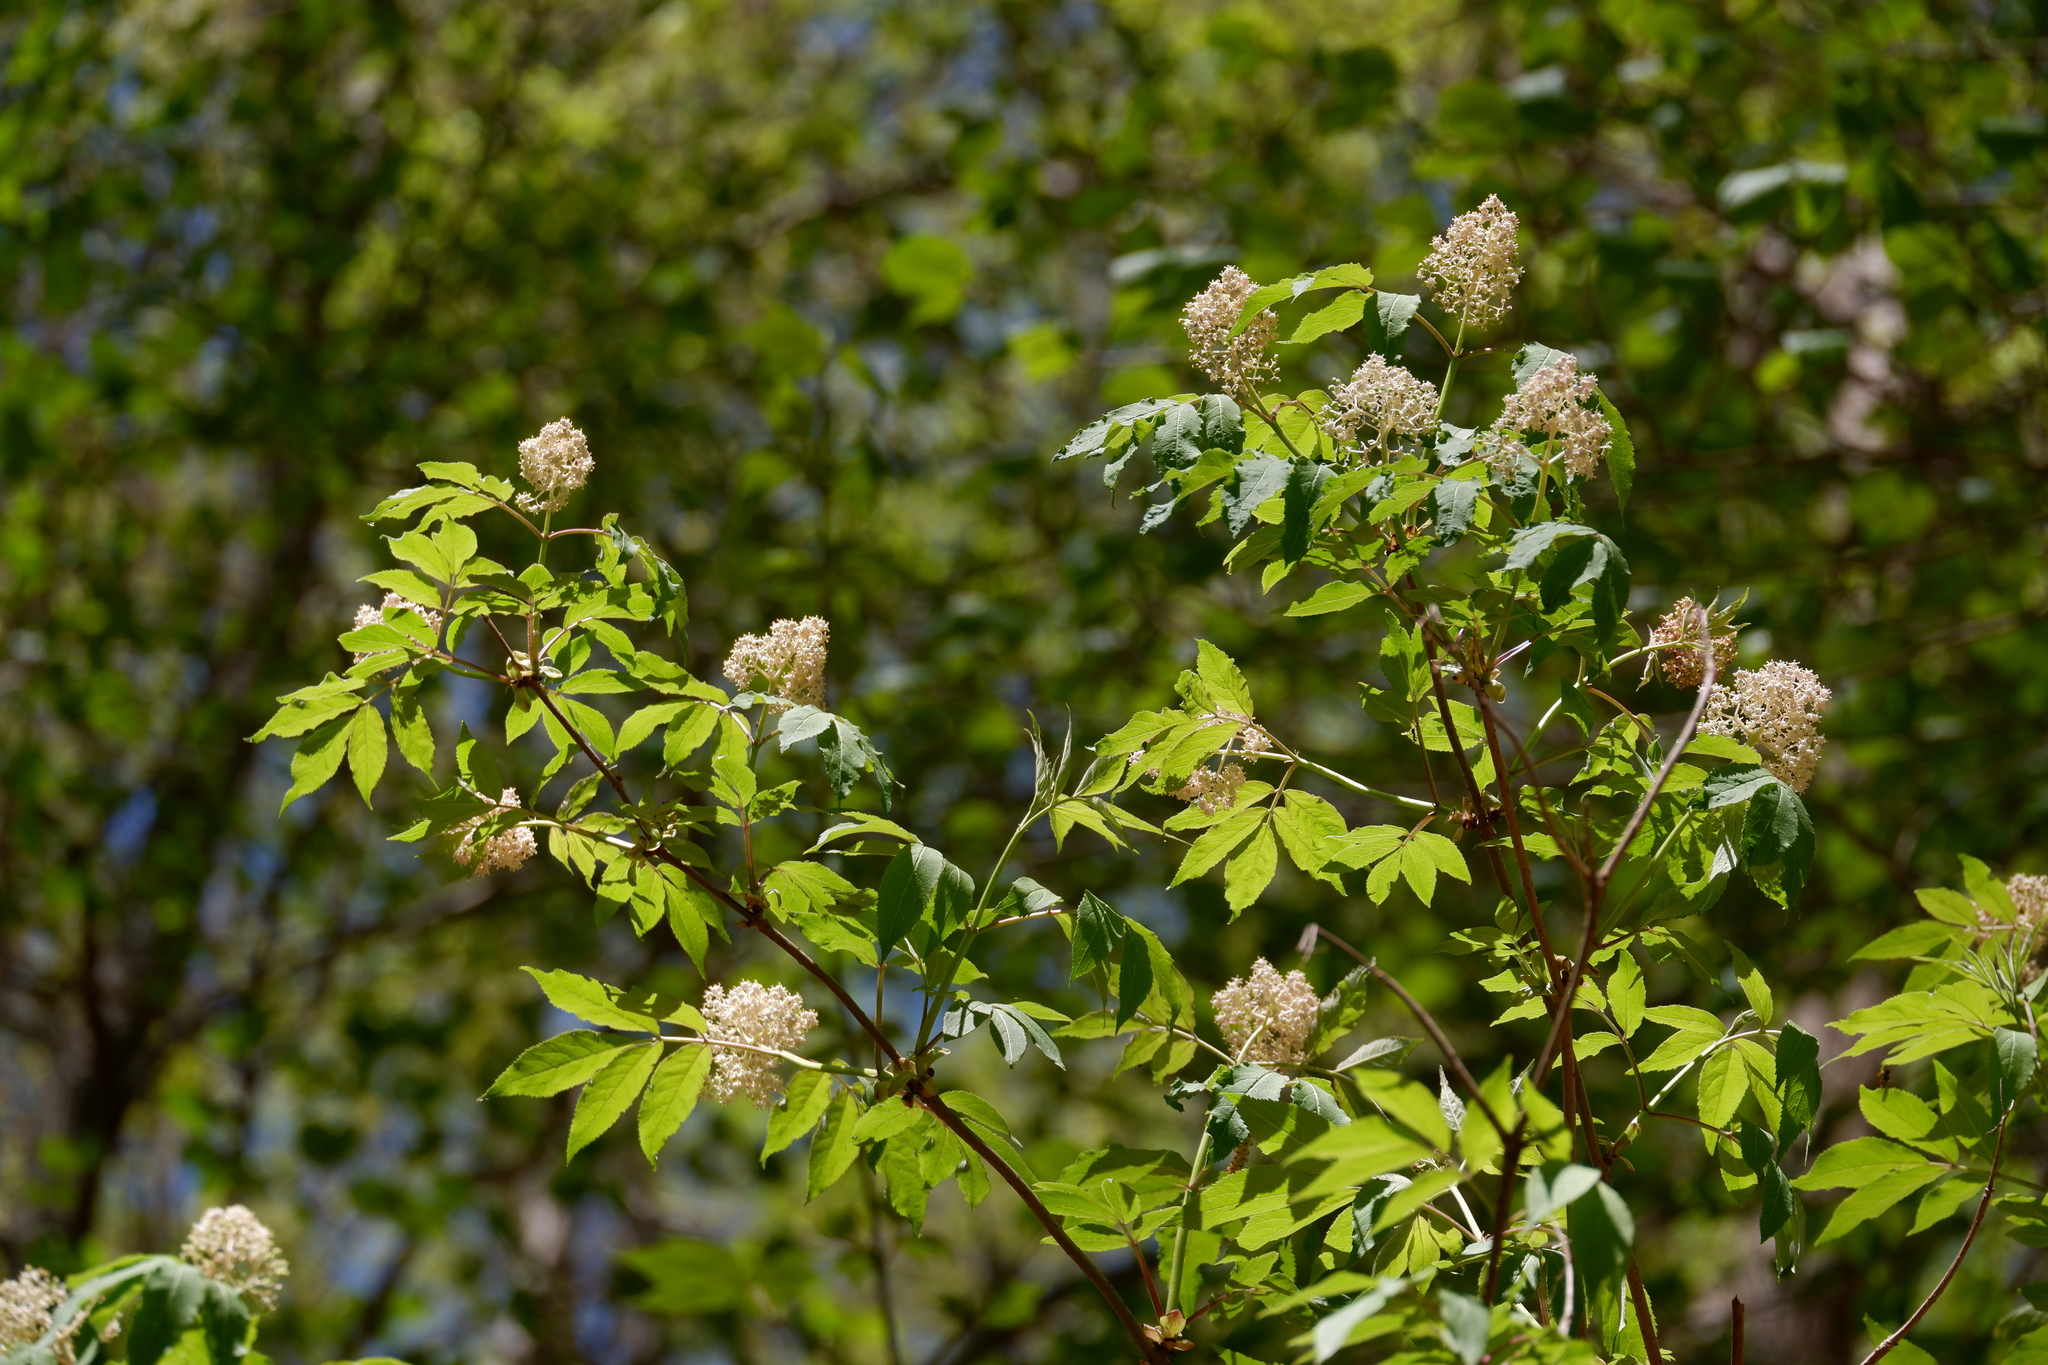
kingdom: Plantae
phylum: Tracheophyta
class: Magnoliopsida
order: Dipsacales
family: Viburnaceae
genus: Sambucus
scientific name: Sambucus racemosa
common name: Red-berried elder
